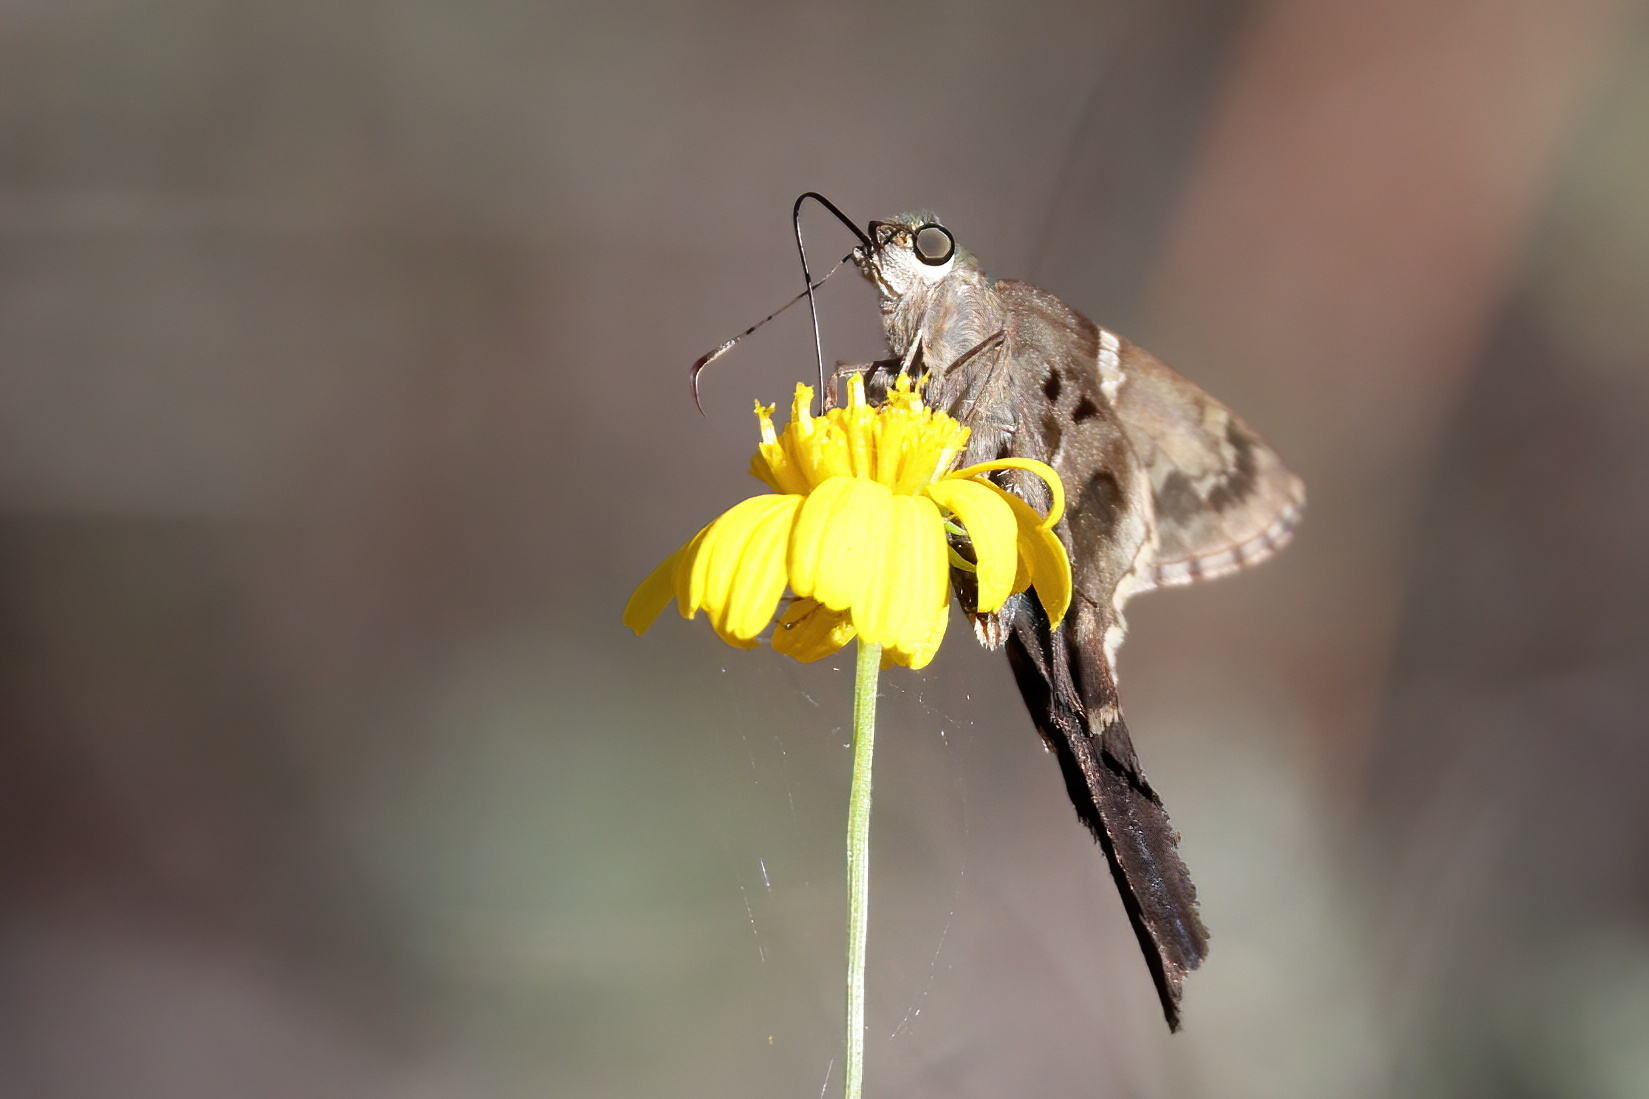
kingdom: Animalia
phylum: Arthropoda
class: Insecta
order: Lepidoptera
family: Hesperiidae
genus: Urbanus
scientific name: Urbanus proteus
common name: Long-tailed skipper
